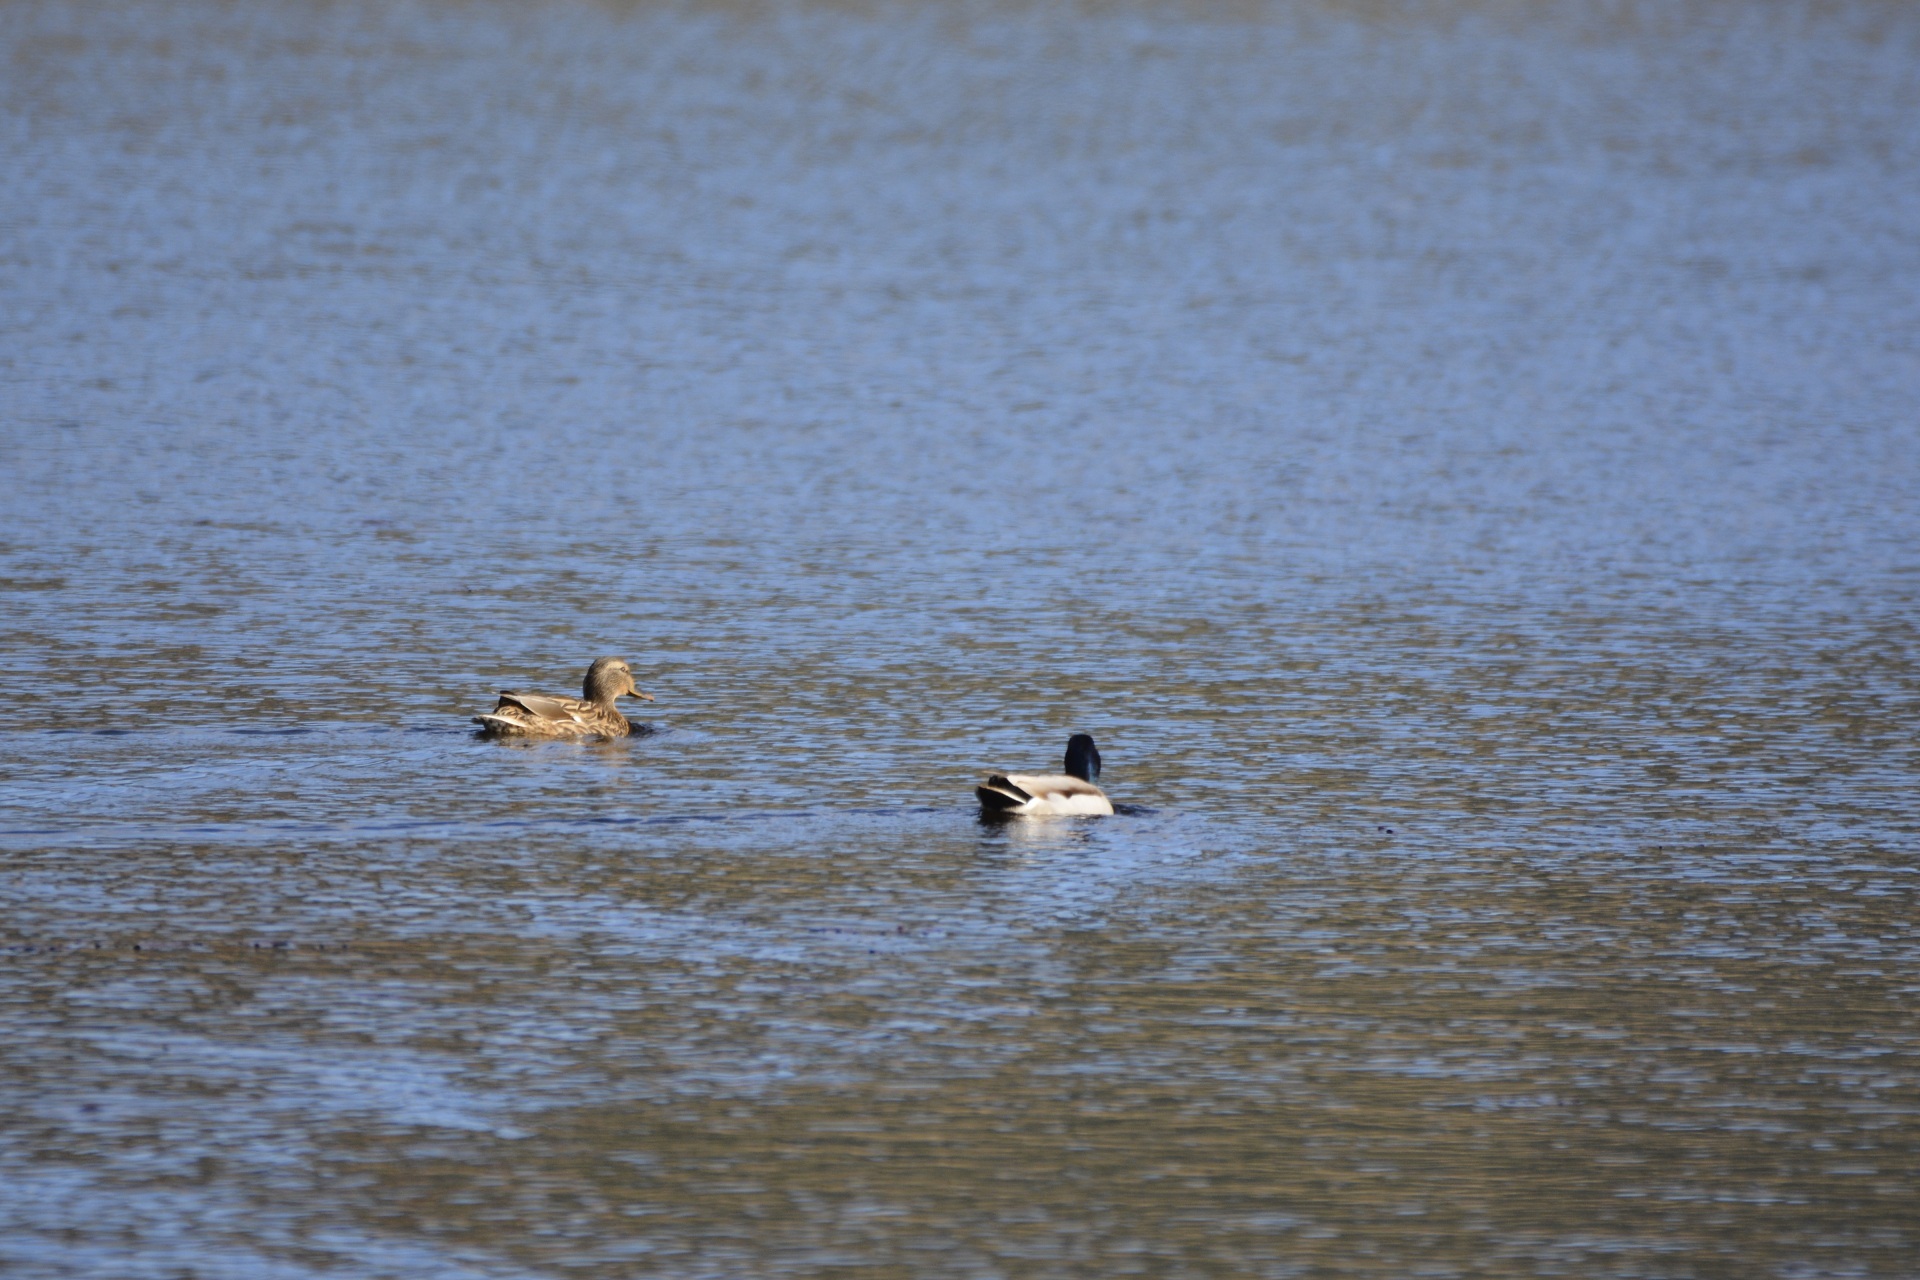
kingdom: Animalia
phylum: Chordata
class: Aves
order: Anseriformes
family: Anatidae
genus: Anas
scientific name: Anas platyrhynchos
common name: Mallard
